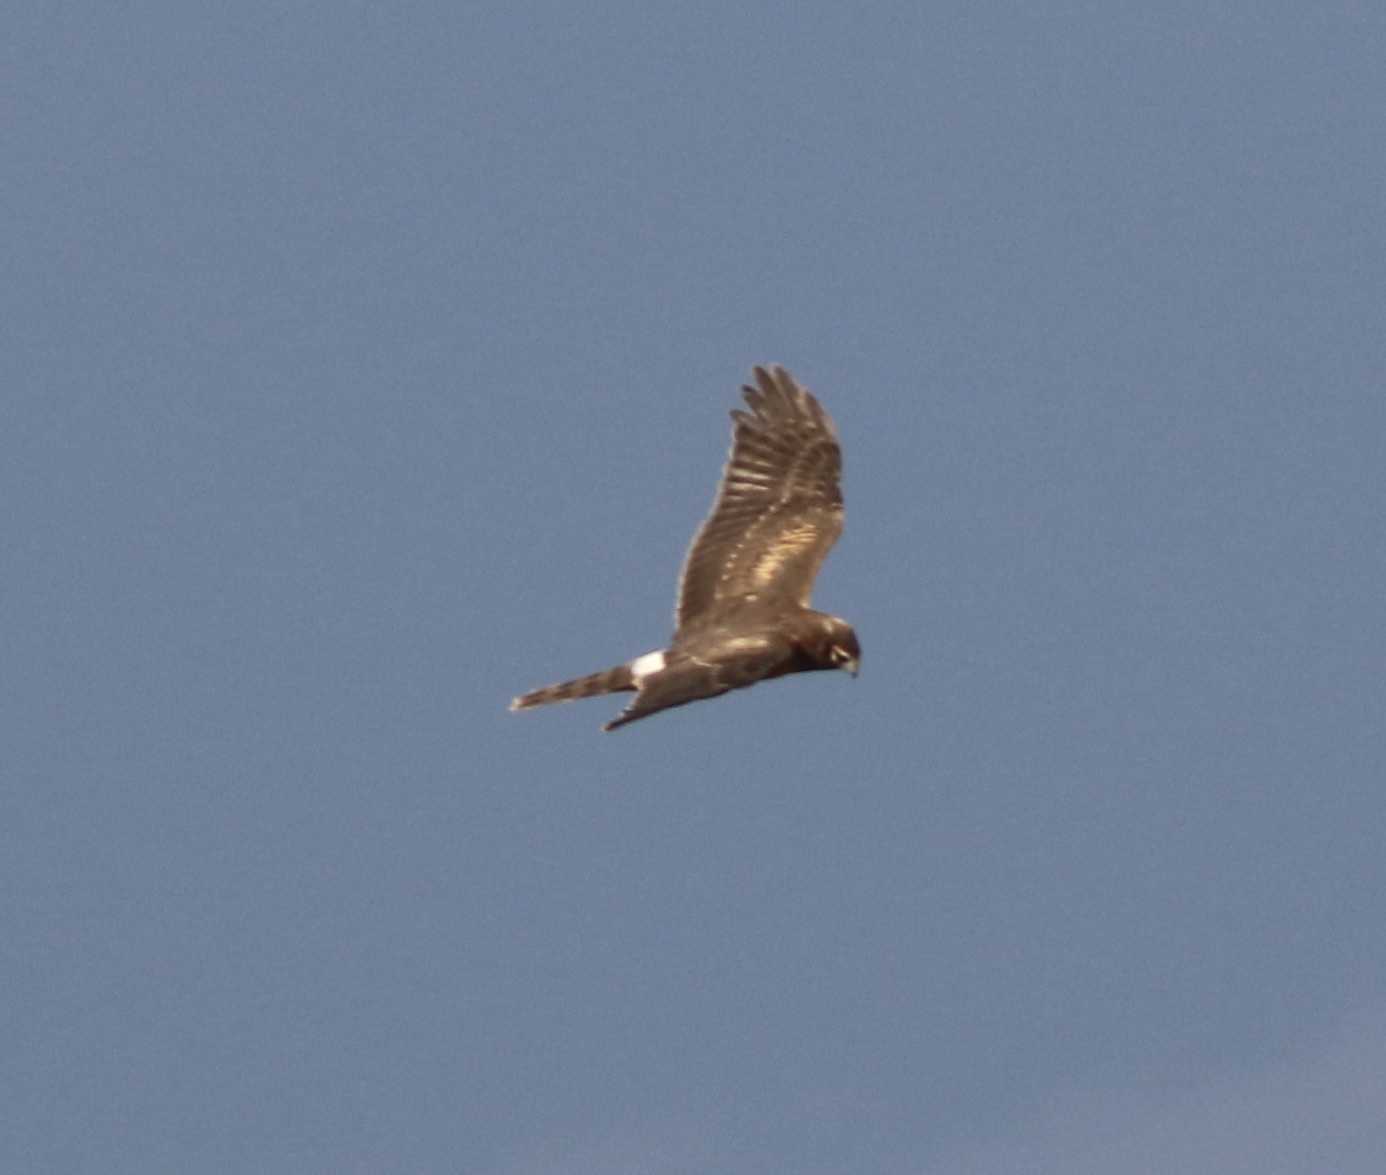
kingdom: Animalia
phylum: Chordata
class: Aves
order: Accipitriformes
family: Accipitridae
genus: Circus
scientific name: Circus cyaneus
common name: Hen harrier
